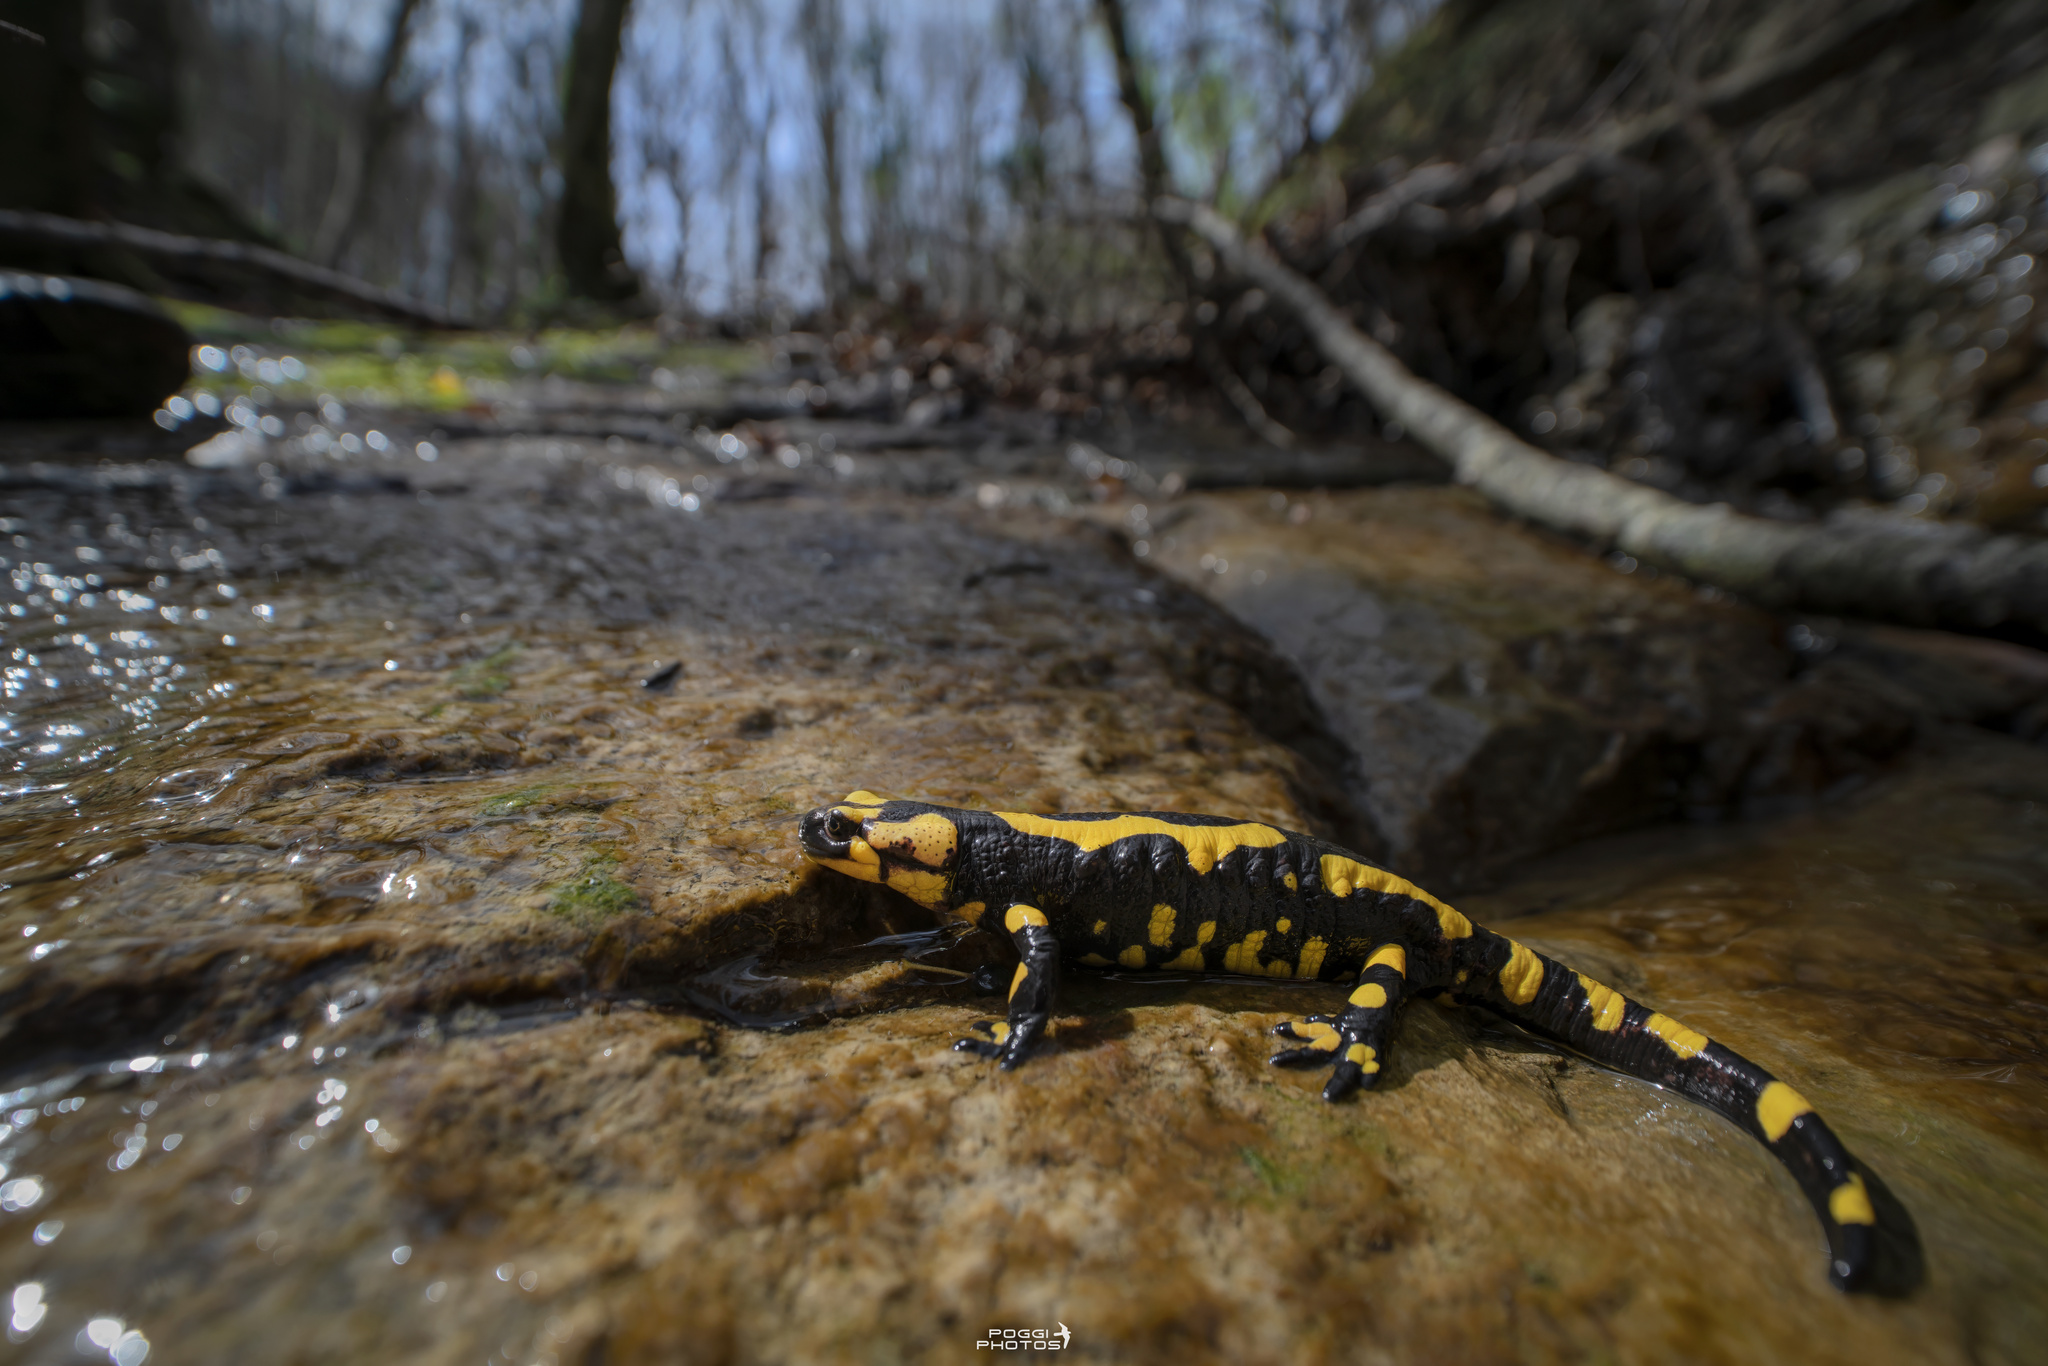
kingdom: Animalia
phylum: Chordata
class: Amphibia
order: Caudata
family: Salamandridae
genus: Salamandra
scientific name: Salamandra salamandra
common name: Fire salamander
